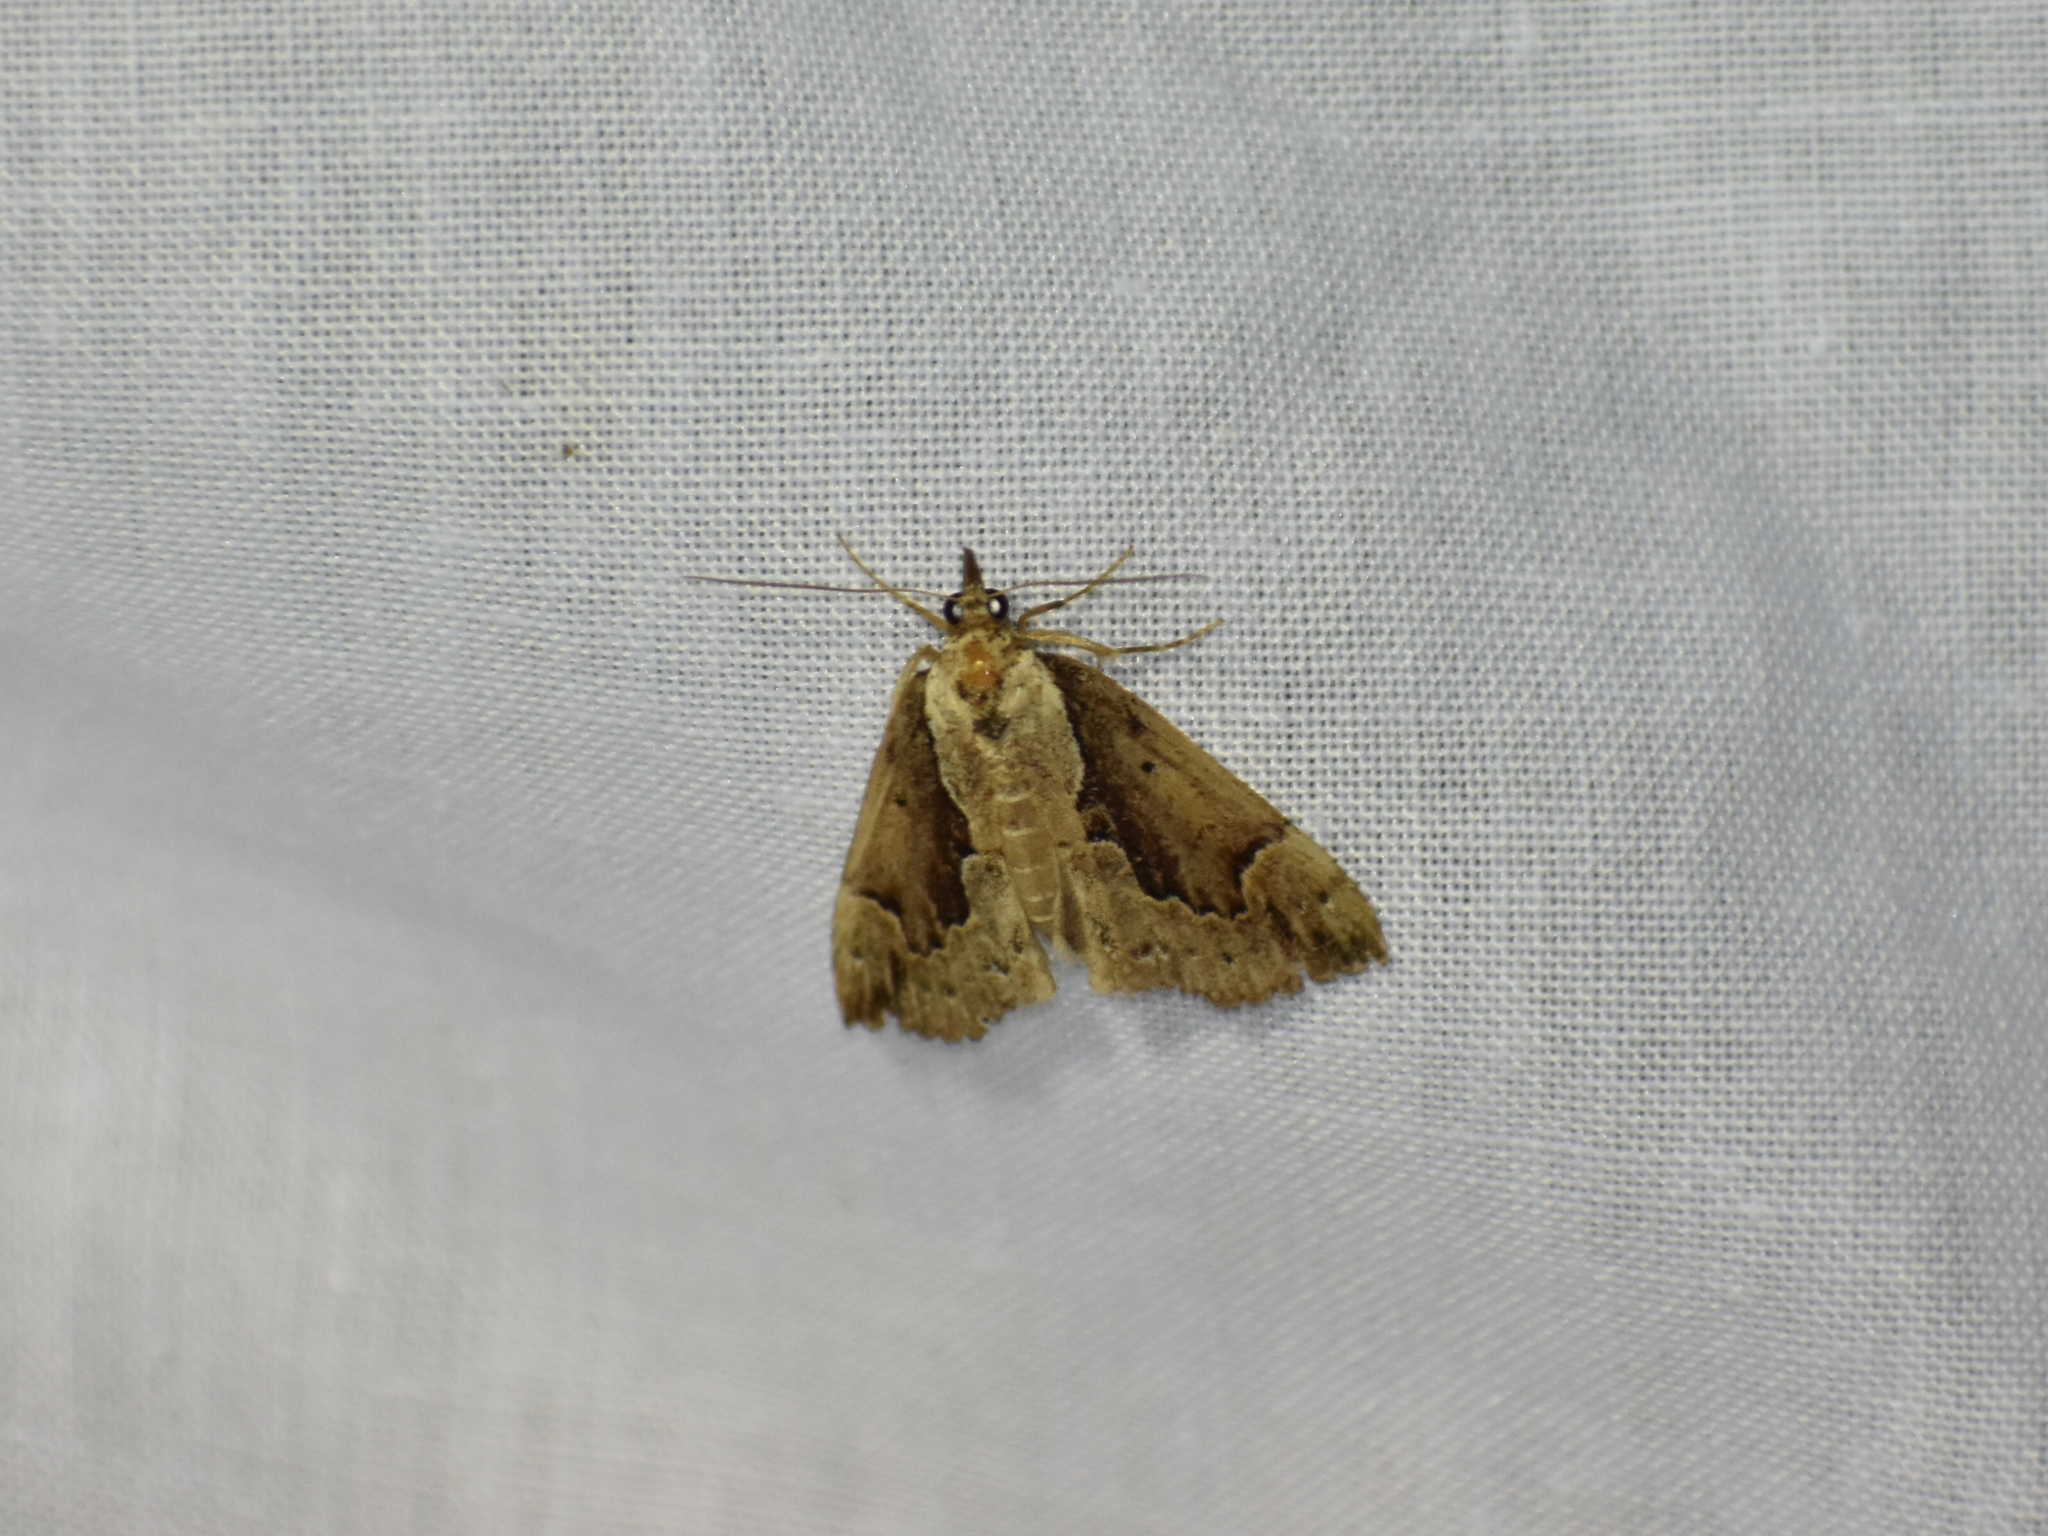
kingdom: Animalia
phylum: Arthropoda
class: Insecta
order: Lepidoptera
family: Erebidae
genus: Hypena
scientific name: Hypena baltimoralis
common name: Baltimore snout
